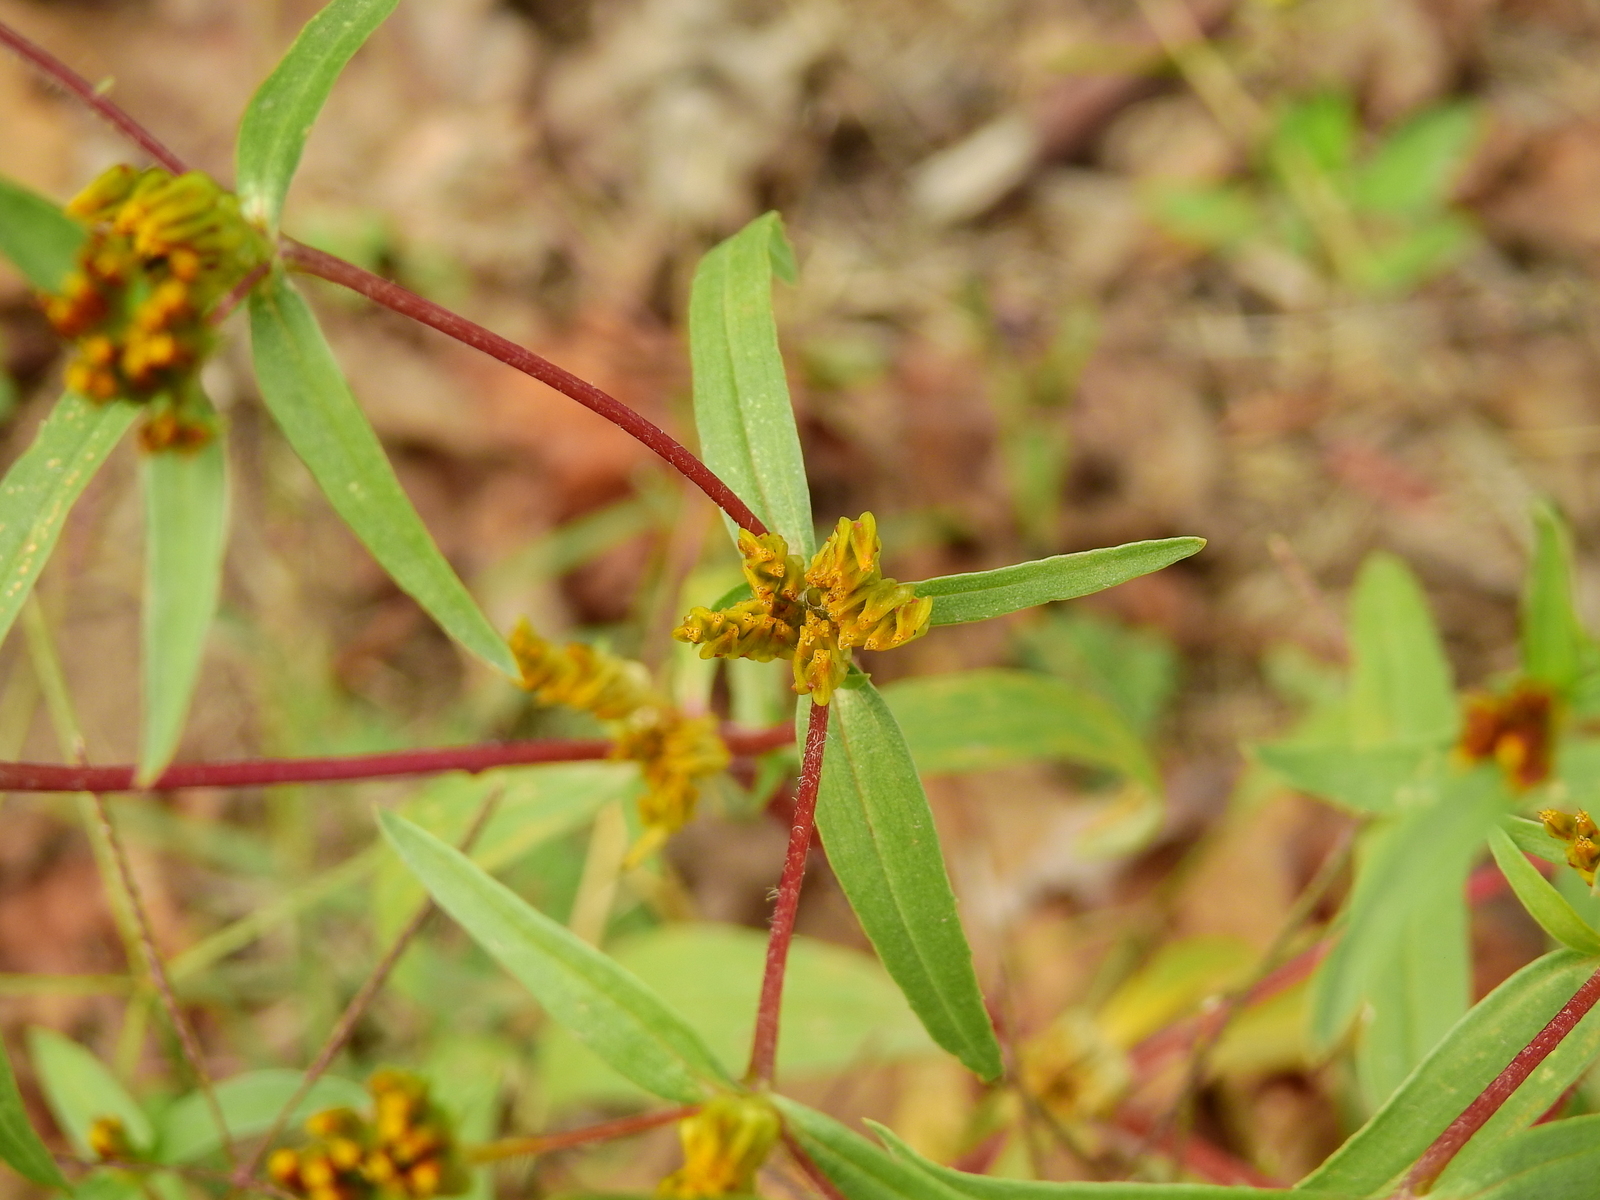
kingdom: Plantae
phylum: Tracheophyta
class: Magnoliopsida
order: Asterales
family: Asteraceae
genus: Flaveria
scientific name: Flaveria bidentis
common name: Coastal plain yellowtops
